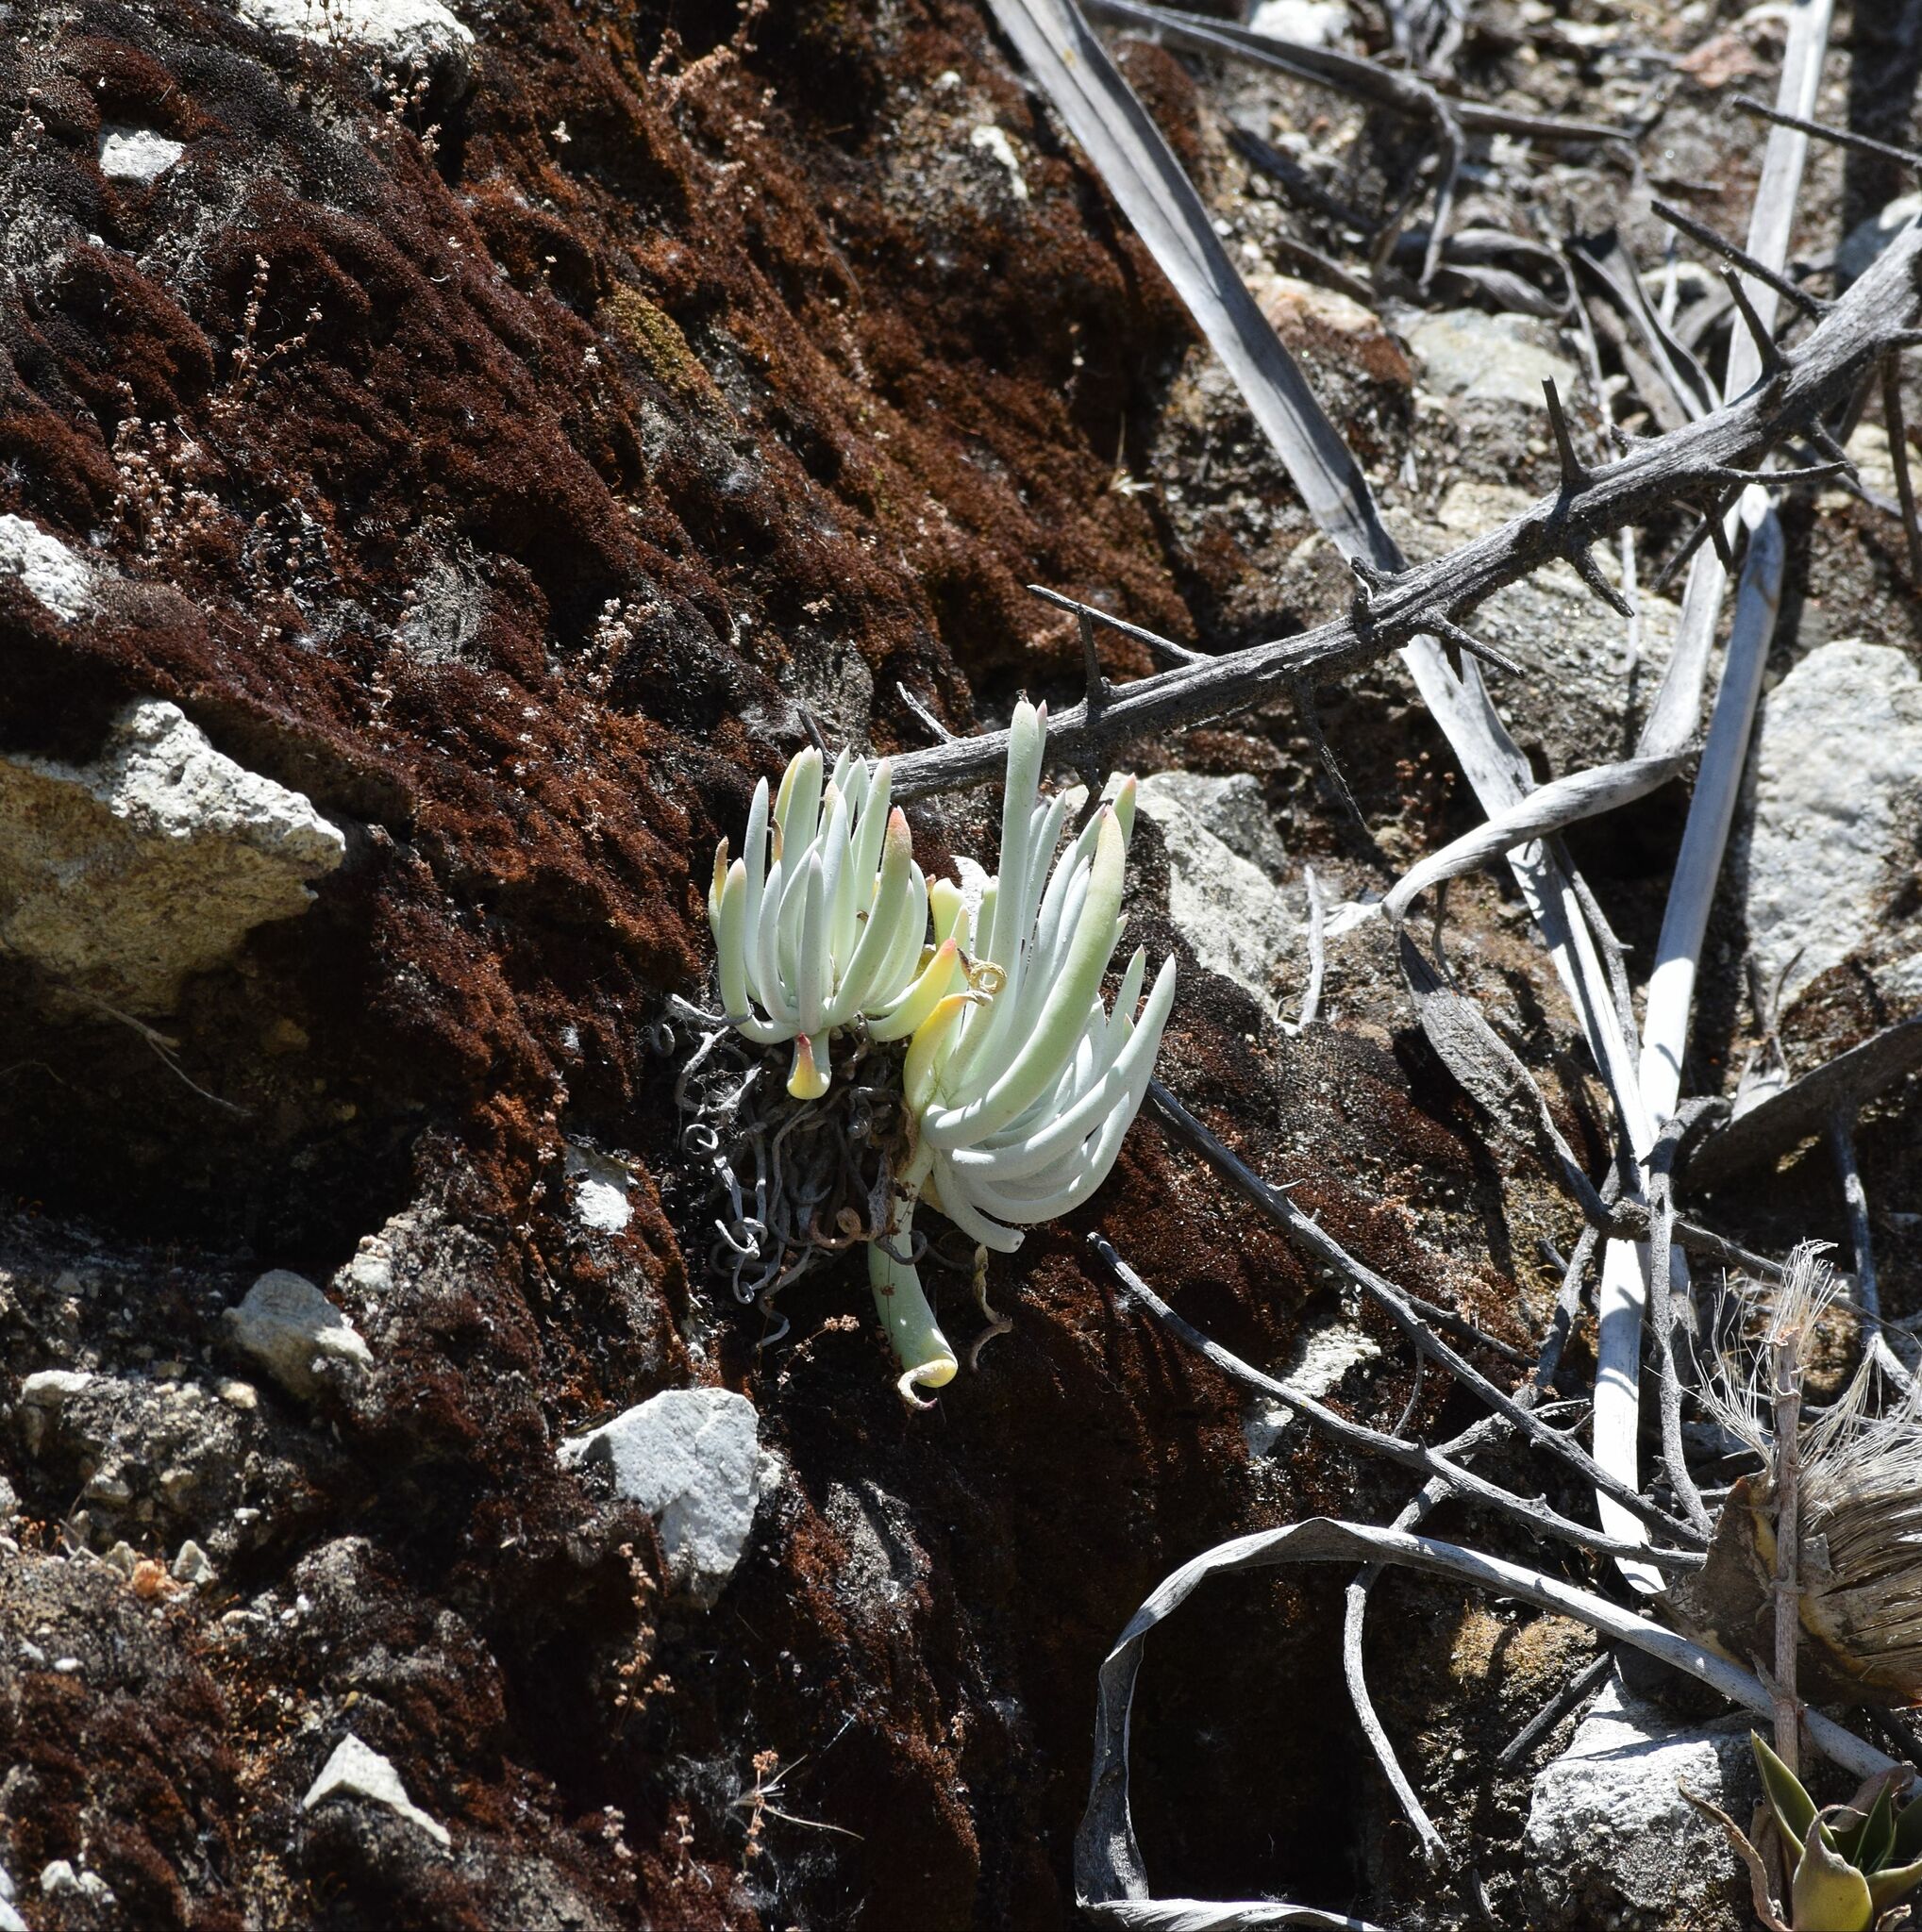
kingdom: Plantae
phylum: Tracheophyta
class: Magnoliopsida
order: Saxifragales
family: Crassulaceae
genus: Dudleya
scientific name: Dudleya densiflora
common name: San gabriel mountains dudleya
